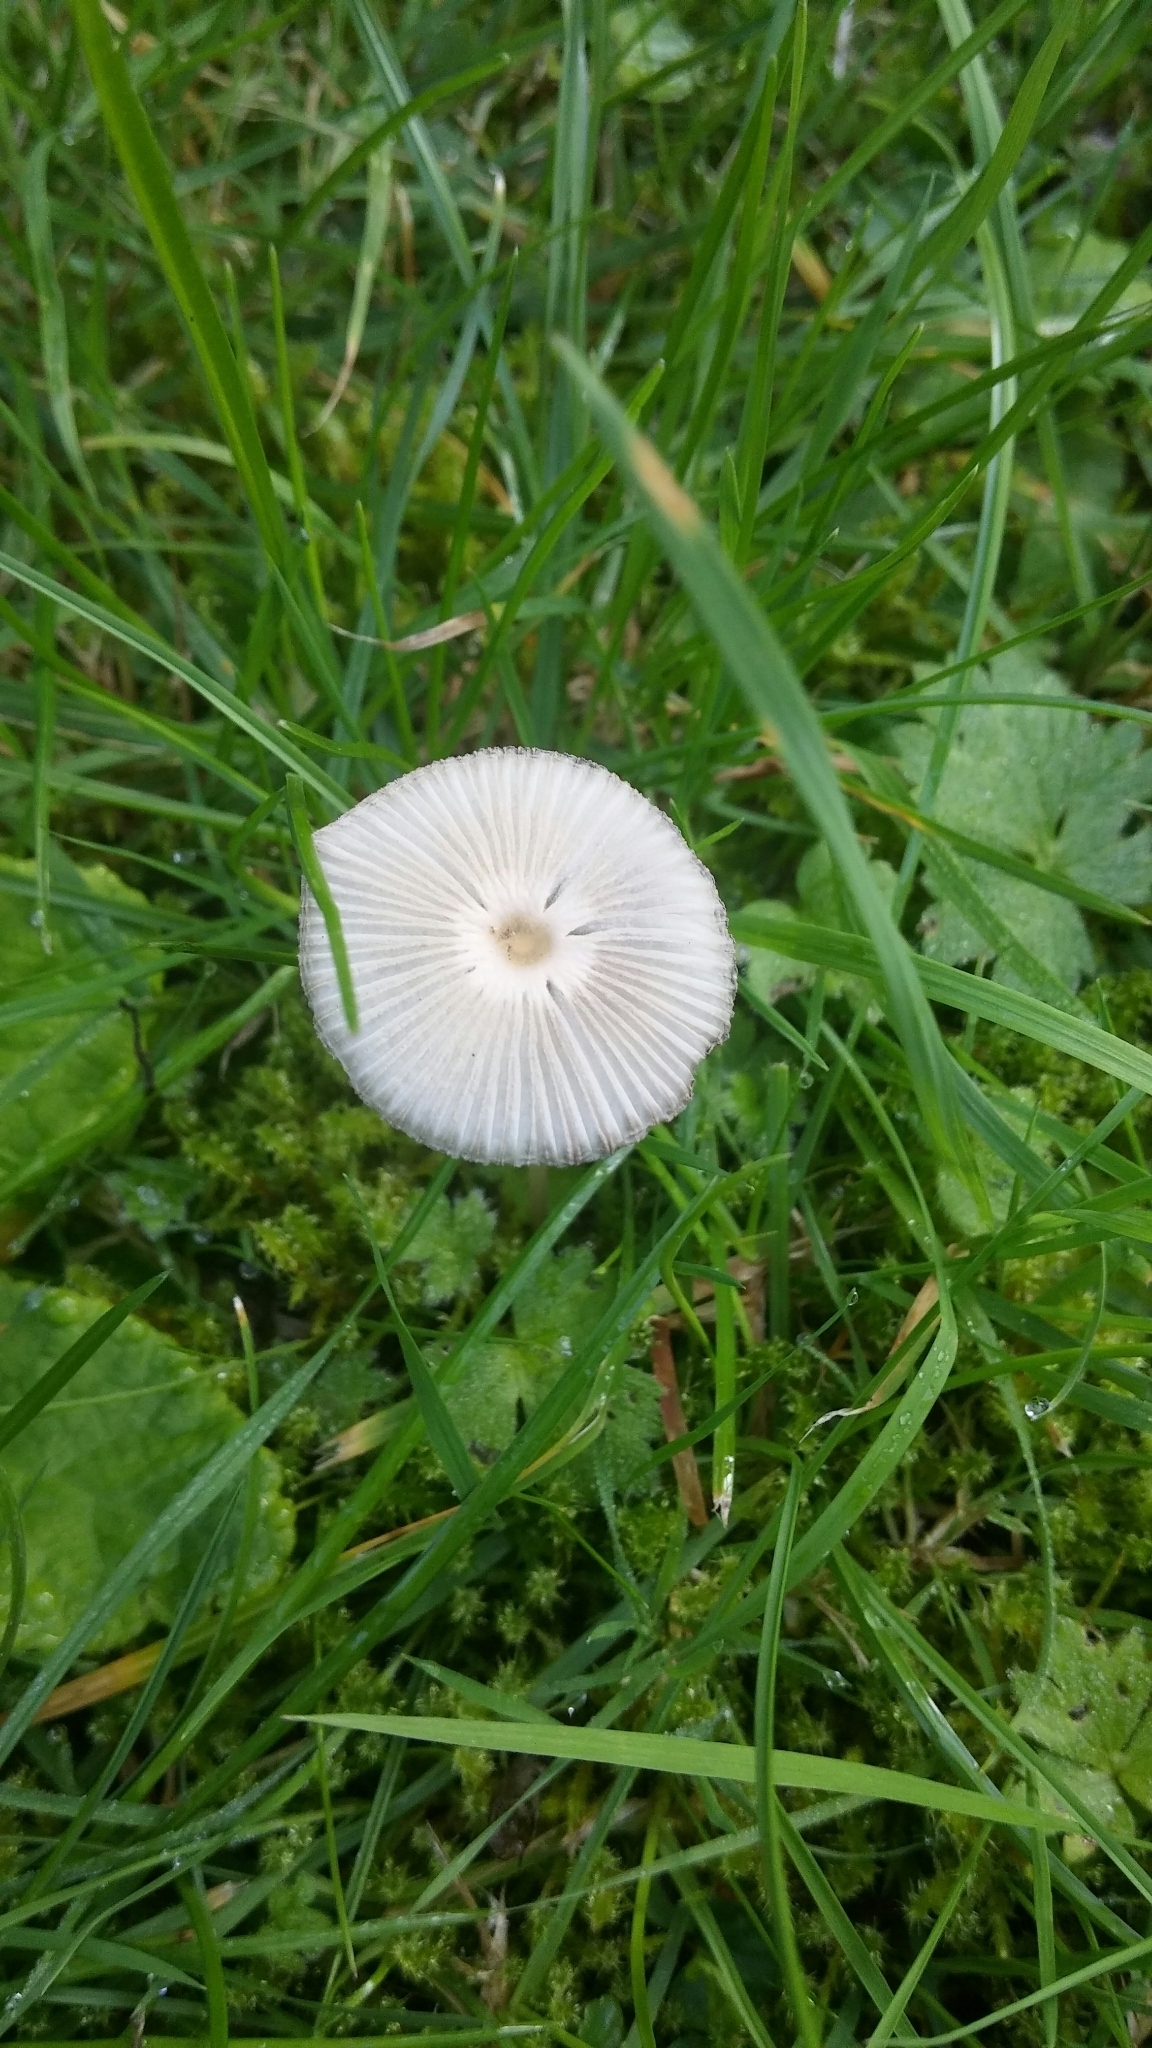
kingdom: Fungi
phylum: Basidiomycota
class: Agaricomycetes
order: Agaricales
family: Psathyrellaceae
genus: Parasola
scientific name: Parasola plicatilis
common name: Pleated inkcap
